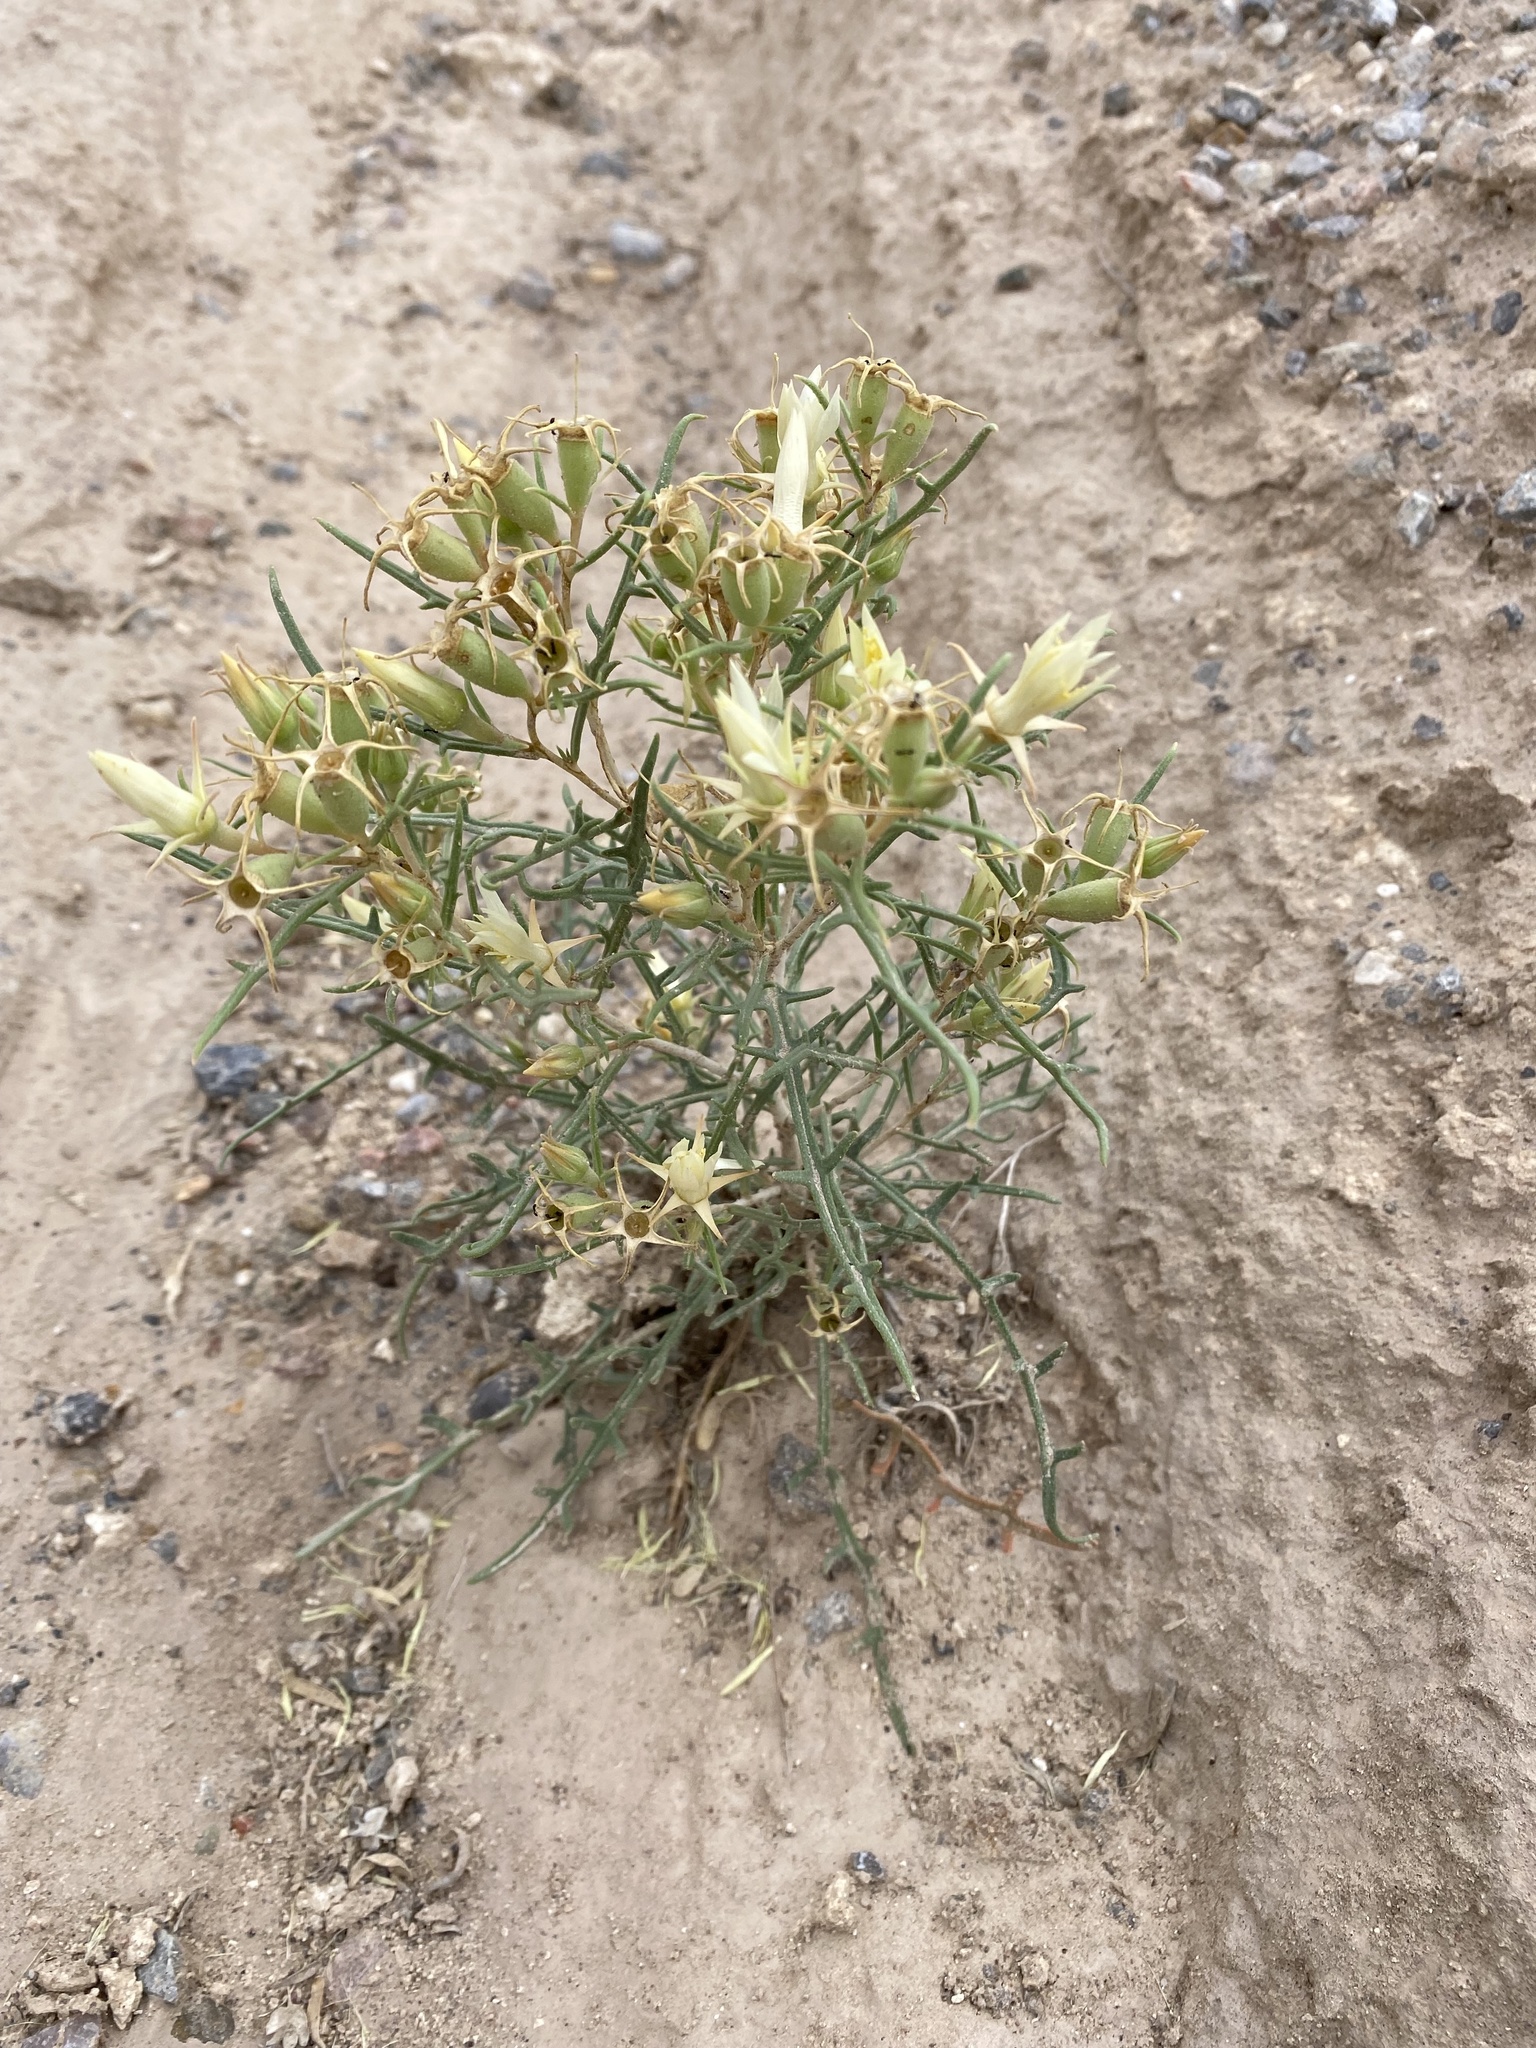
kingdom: Plantae
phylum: Tracheophyta
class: Magnoliopsida
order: Cornales
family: Loasaceae
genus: Mentzelia
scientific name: Mentzelia todiltoensis
